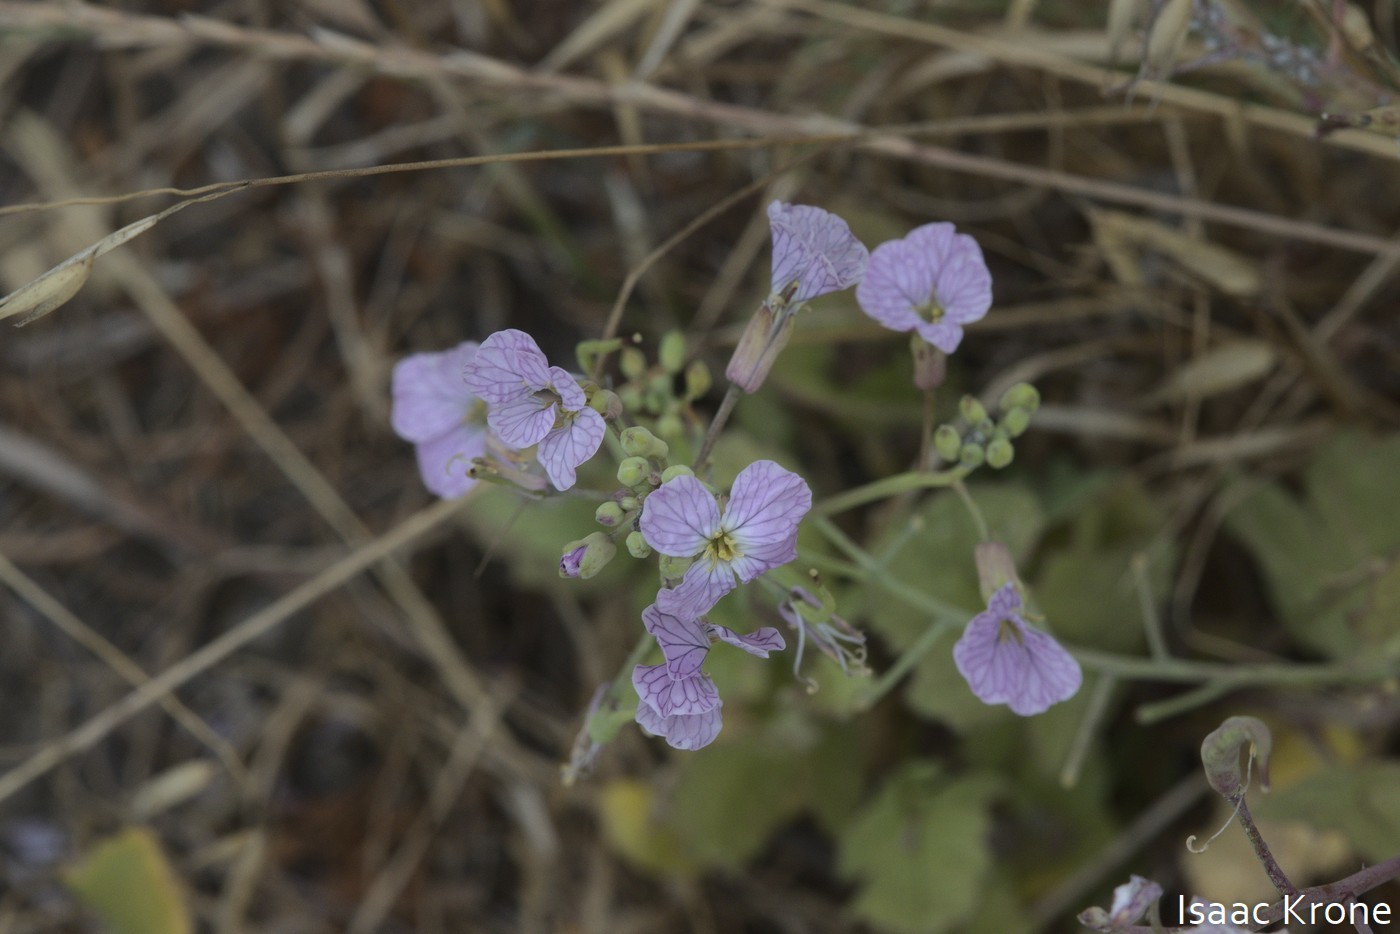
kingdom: Plantae
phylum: Tracheophyta
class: Magnoliopsida
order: Brassicales
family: Brassicaceae
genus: Raphanus
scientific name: Raphanus sativus
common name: Cultivated radish
